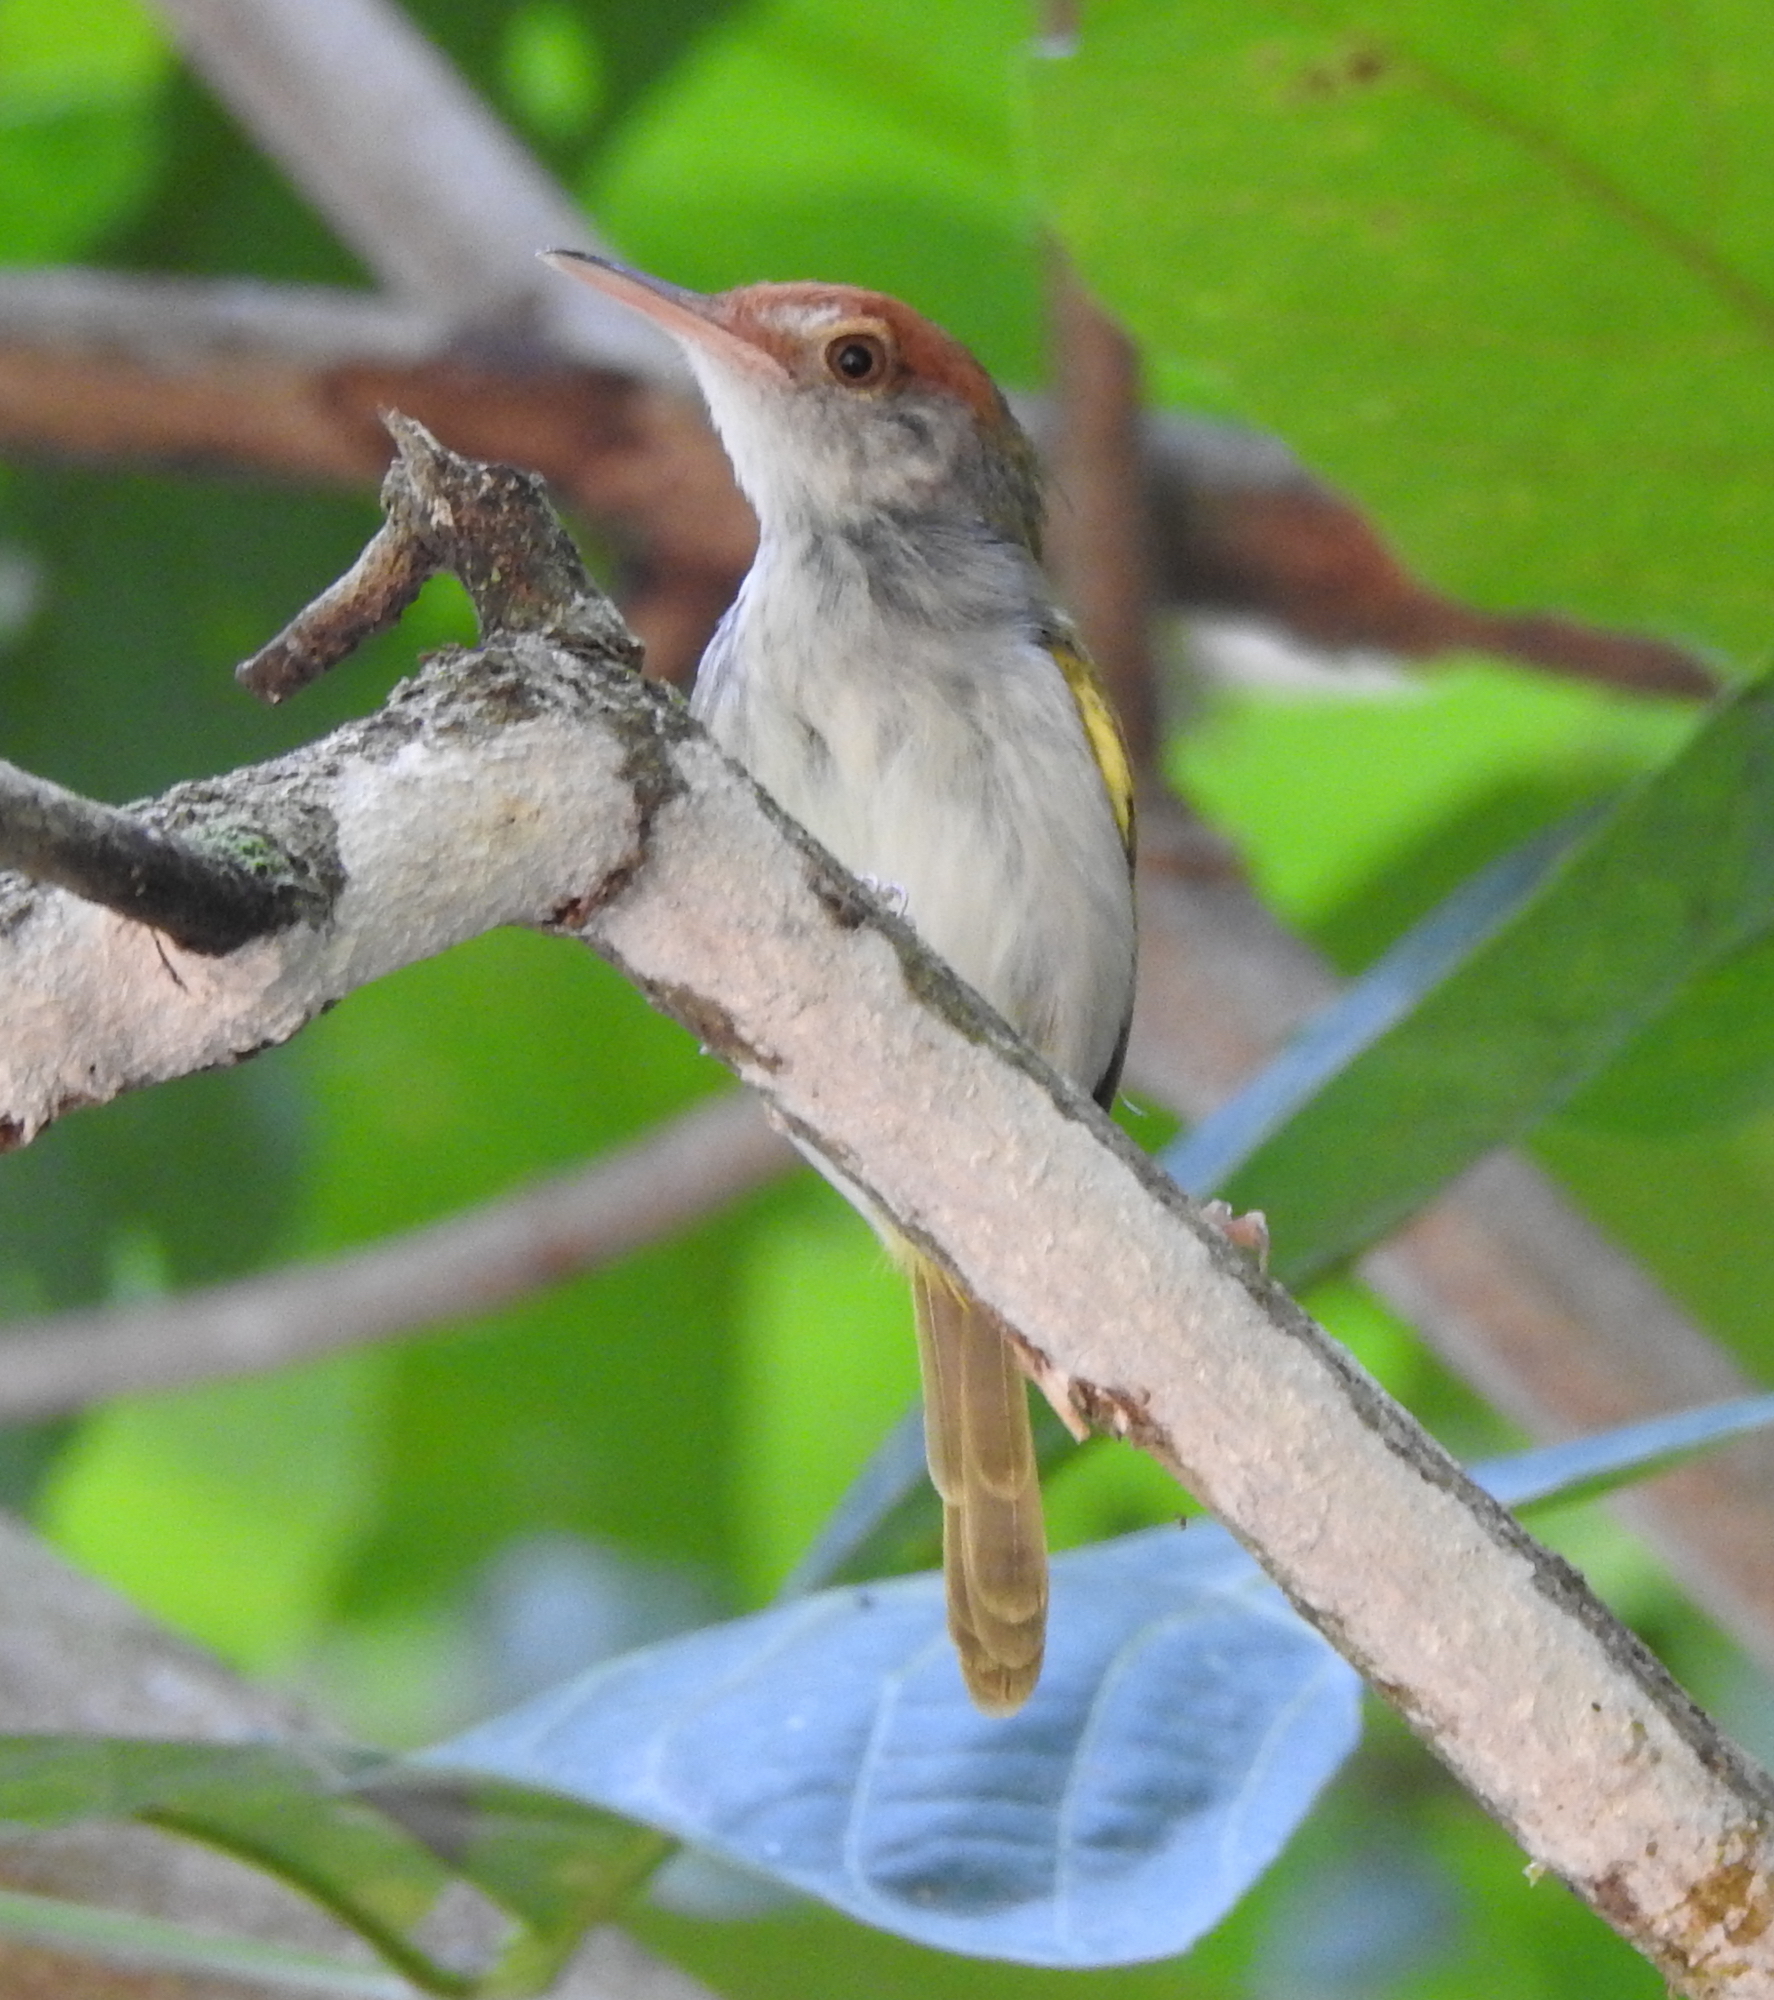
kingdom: Animalia
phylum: Chordata
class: Aves
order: Passeriformes
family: Cisticolidae
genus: Orthotomus
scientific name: Orthotomus atrogularis
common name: Dark-necked tailorbird
